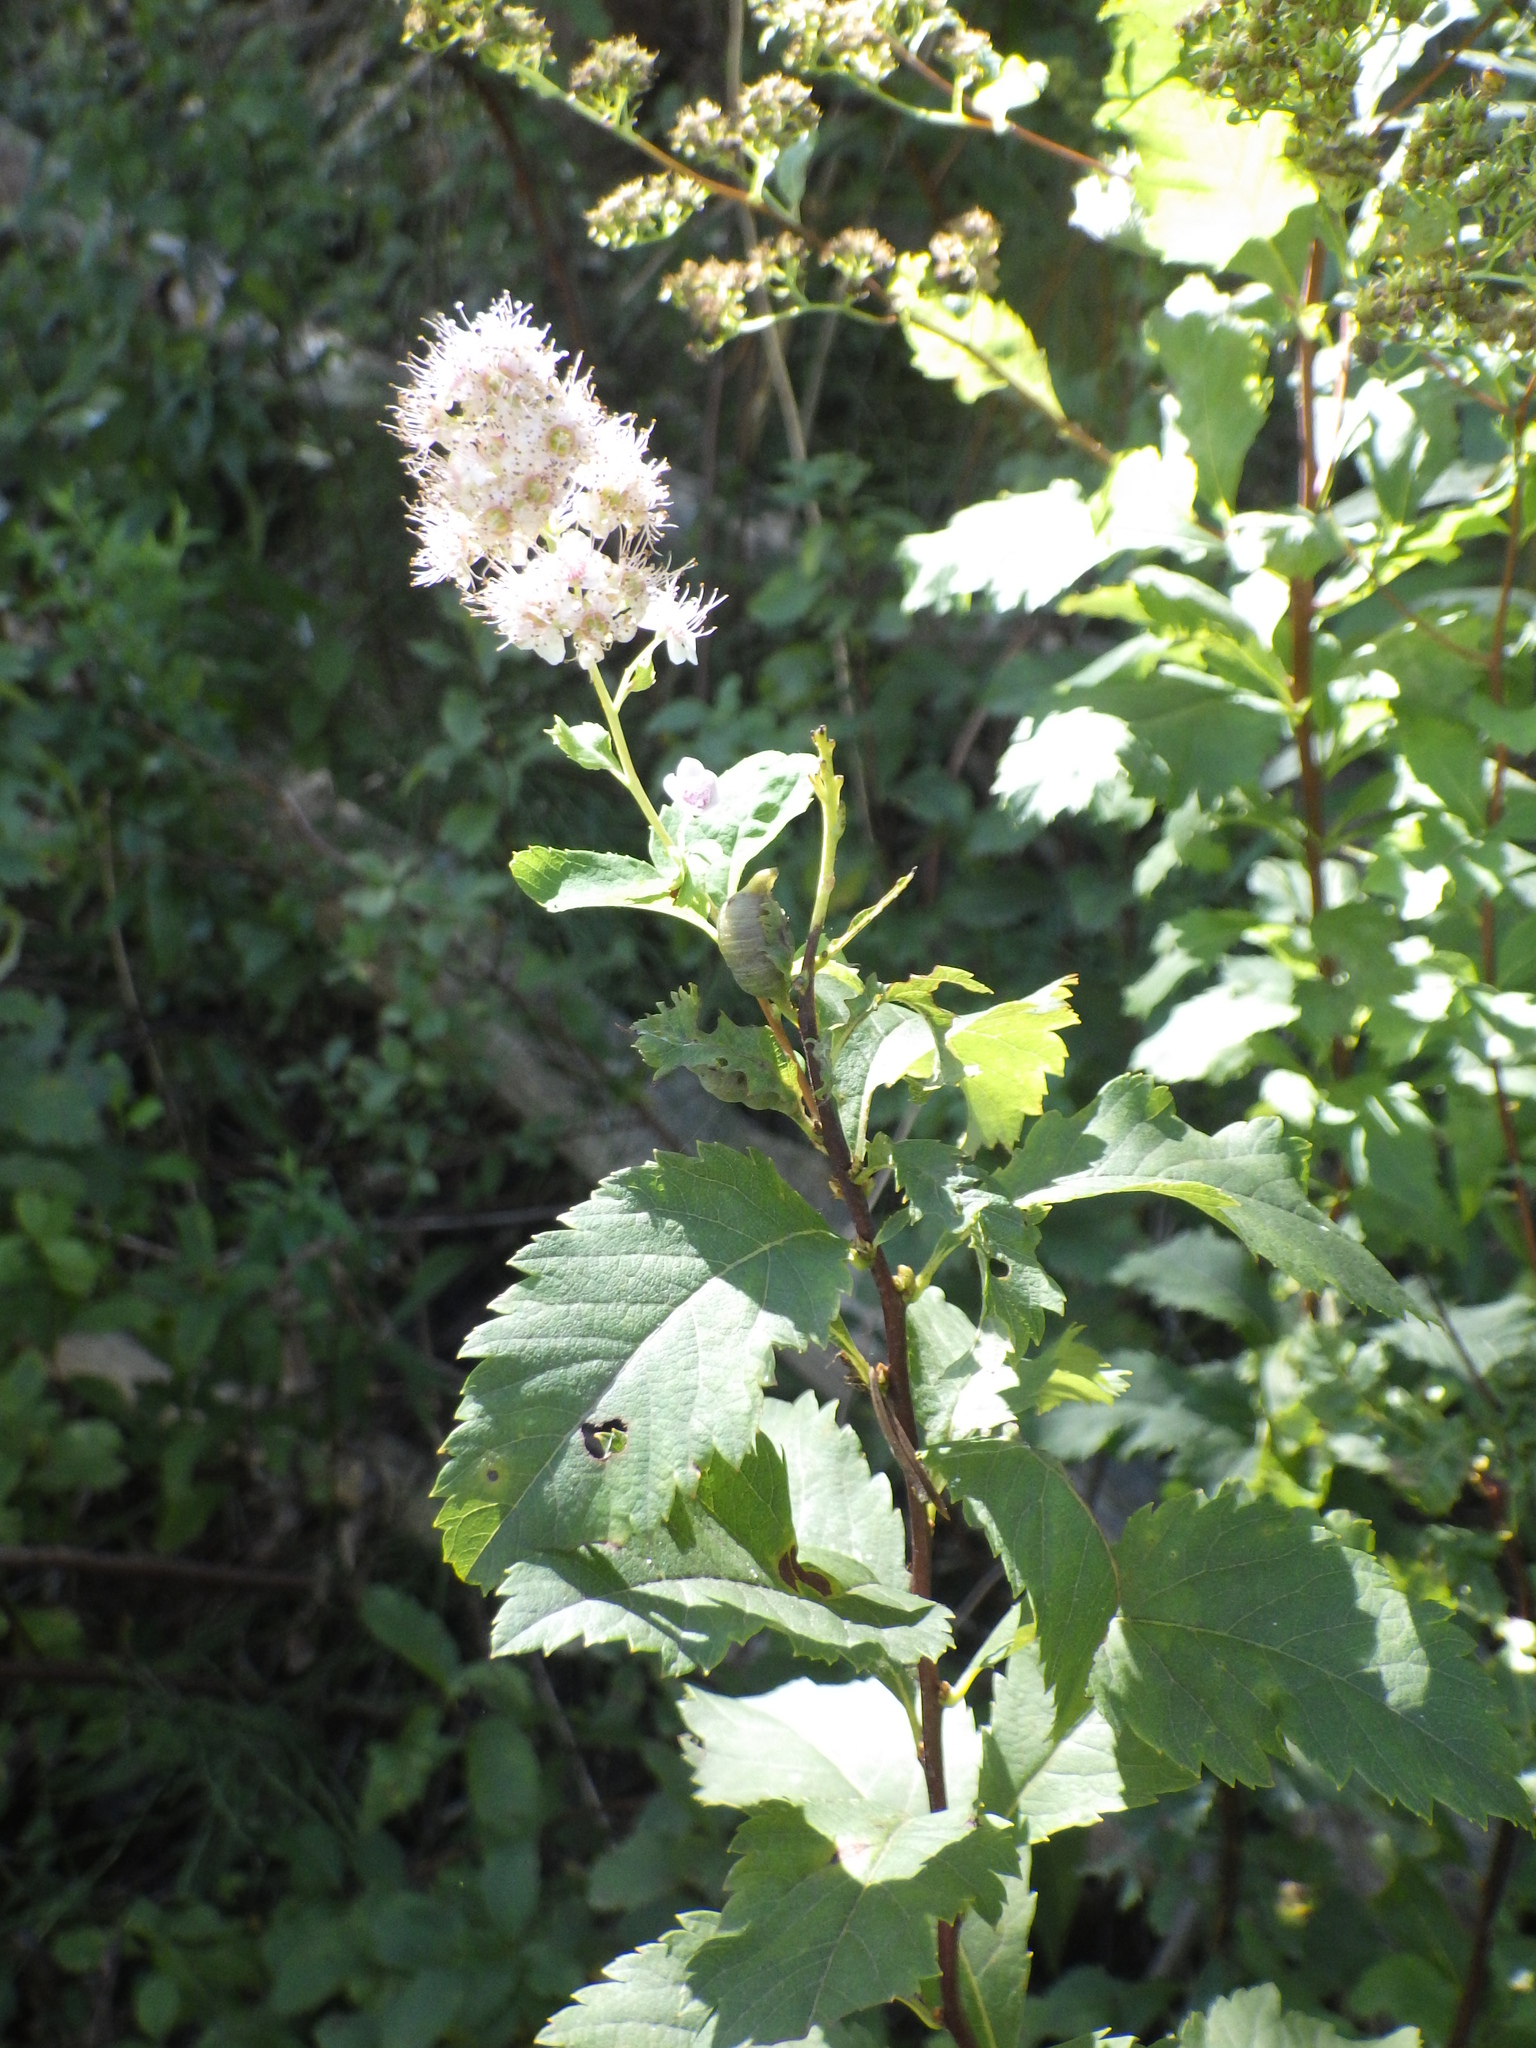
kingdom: Plantae
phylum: Tracheophyta
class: Magnoliopsida
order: Rosales
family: Rosaceae
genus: Spiraea
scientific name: Spiraea alba
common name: Pale bridewort
